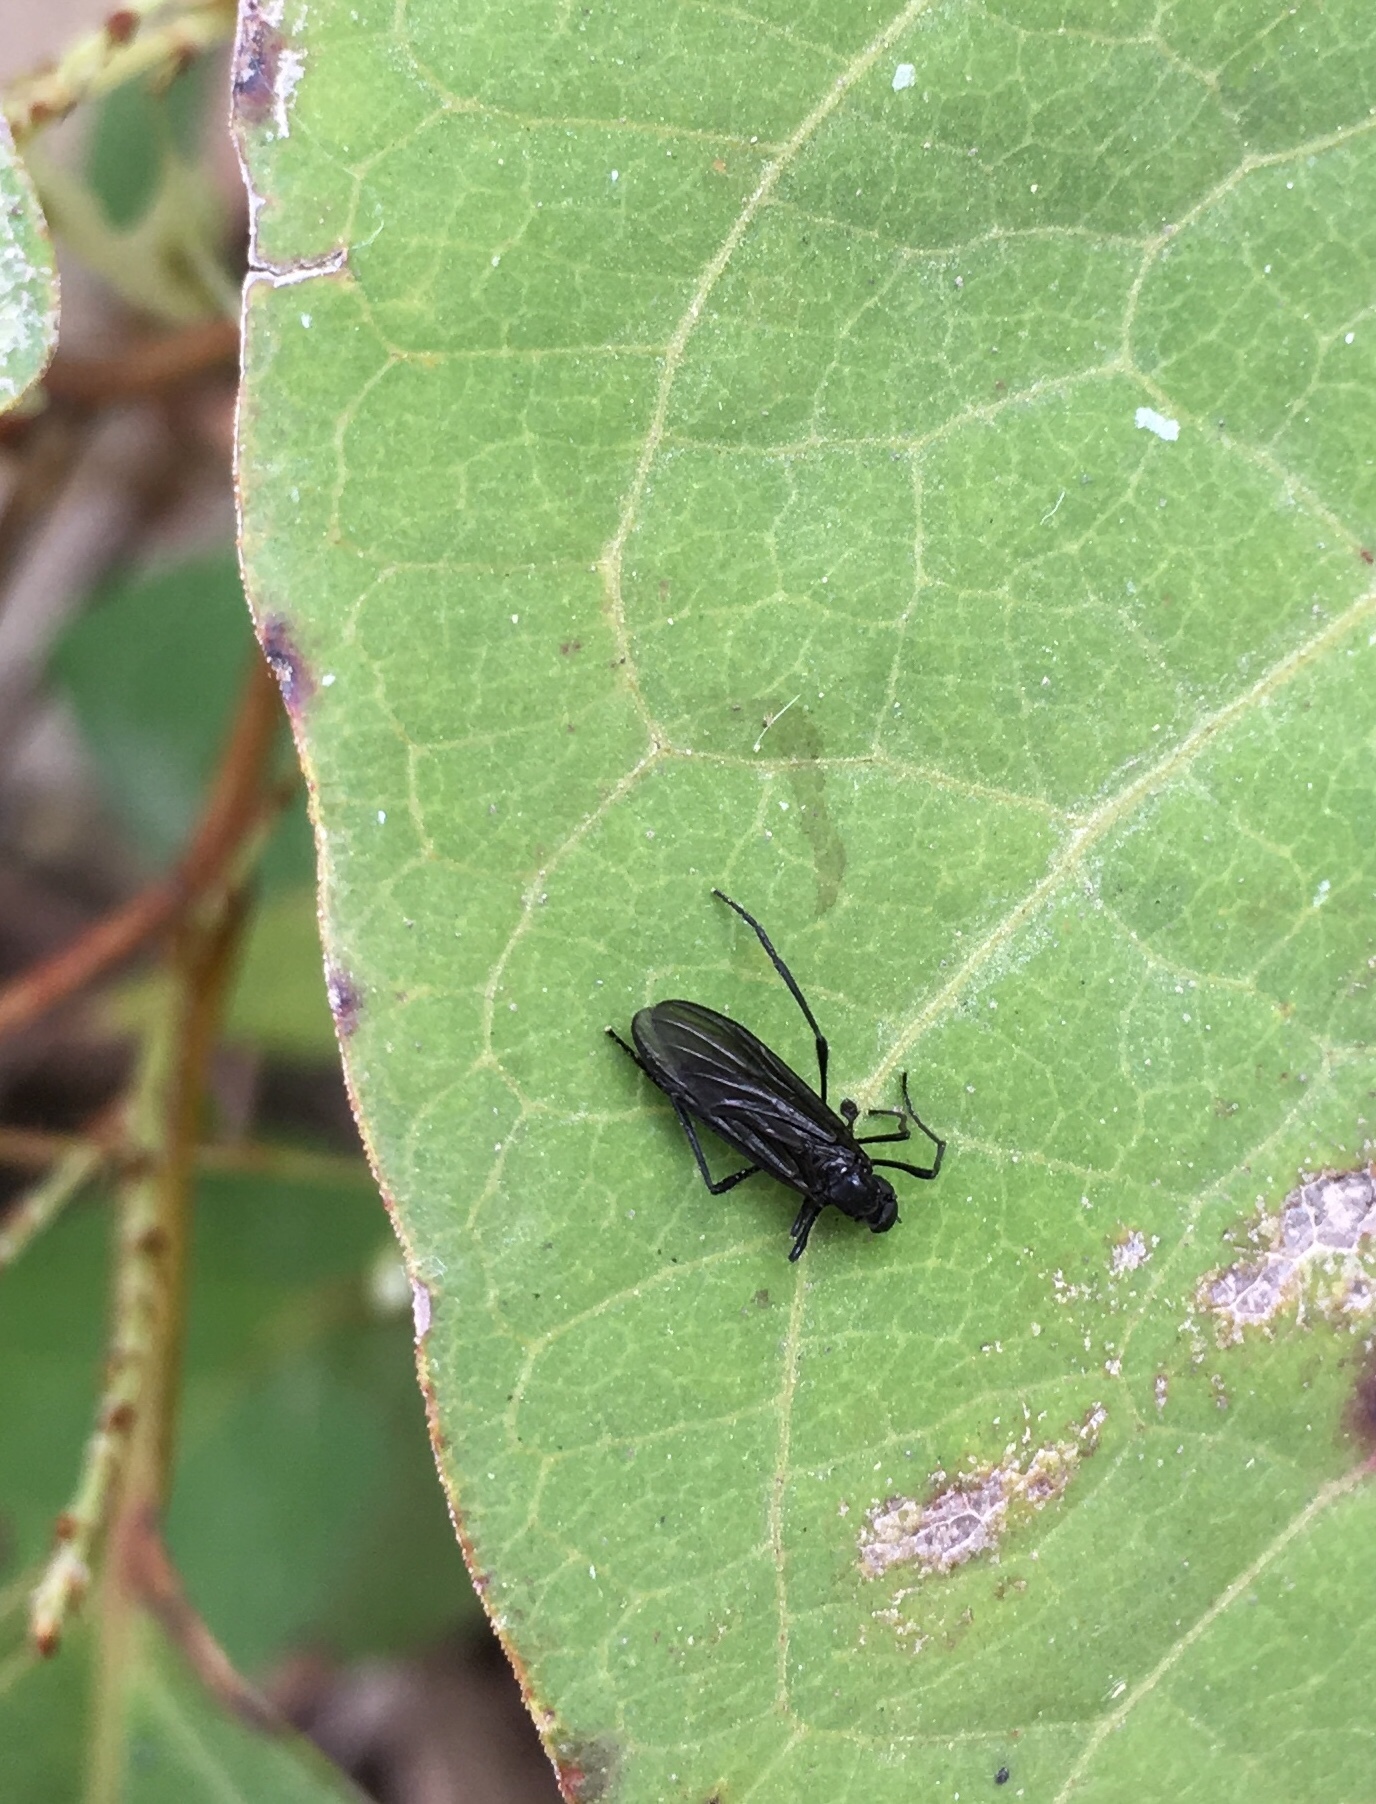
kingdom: Animalia
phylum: Arthropoda
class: Insecta
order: Diptera
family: Bibionidae
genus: Penthetria
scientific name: Penthetria heteroptera
